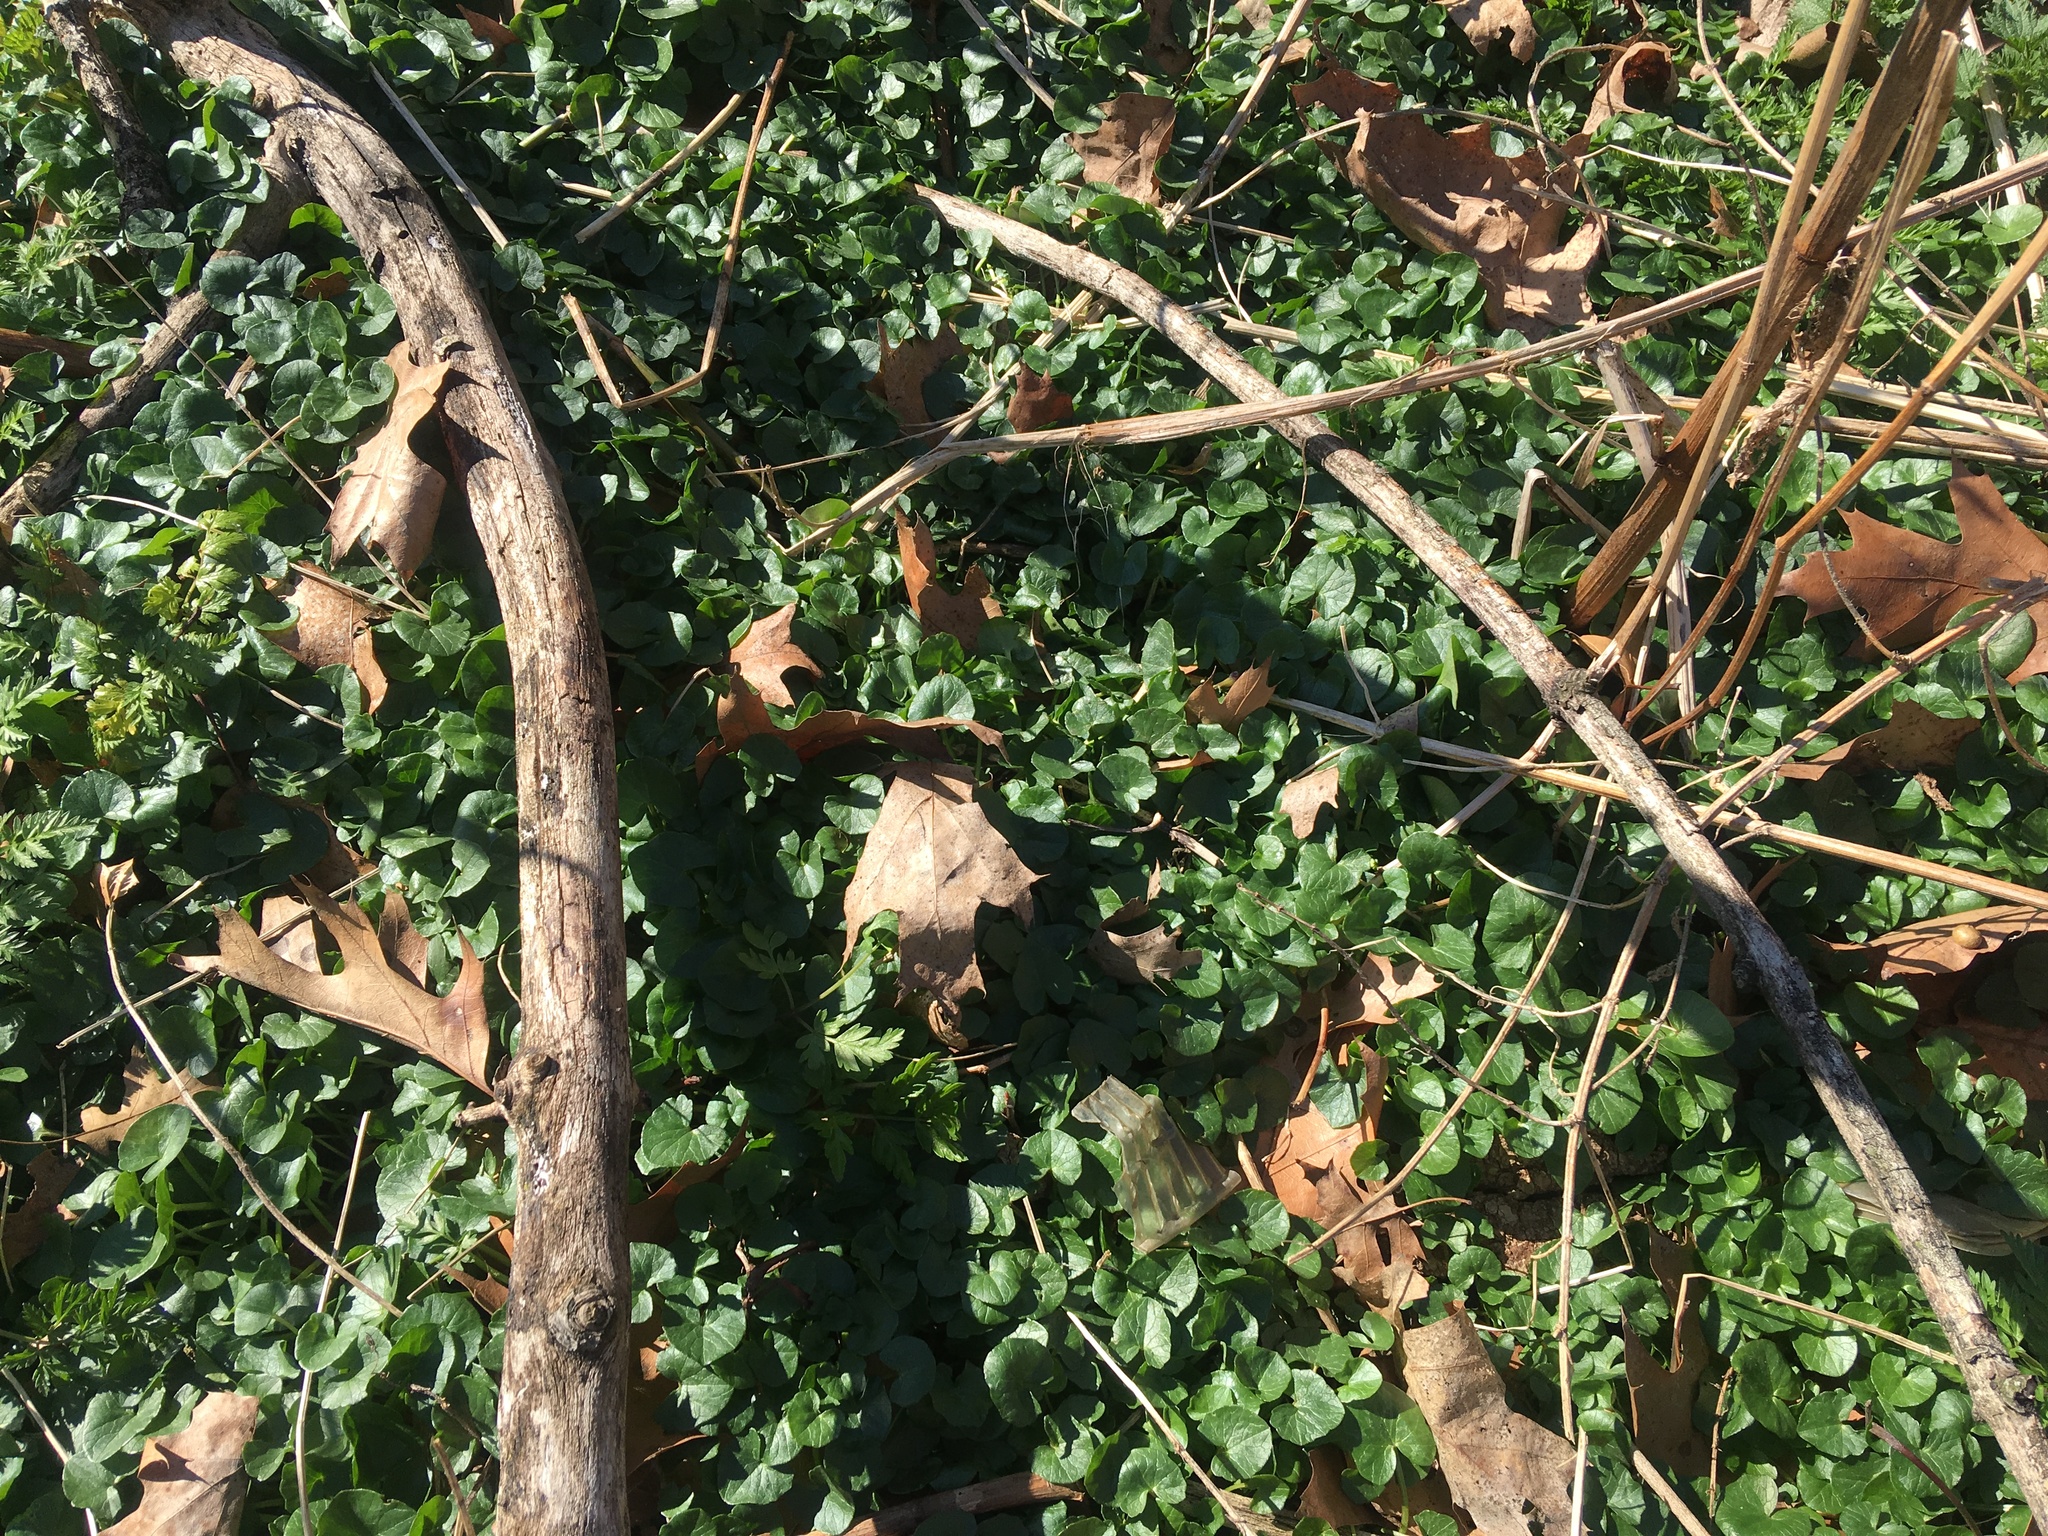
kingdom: Plantae
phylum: Tracheophyta
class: Magnoliopsida
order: Ranunculales
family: Ranunculaceae
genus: Ficaria
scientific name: Ficaria verna
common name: Lesser celandine
